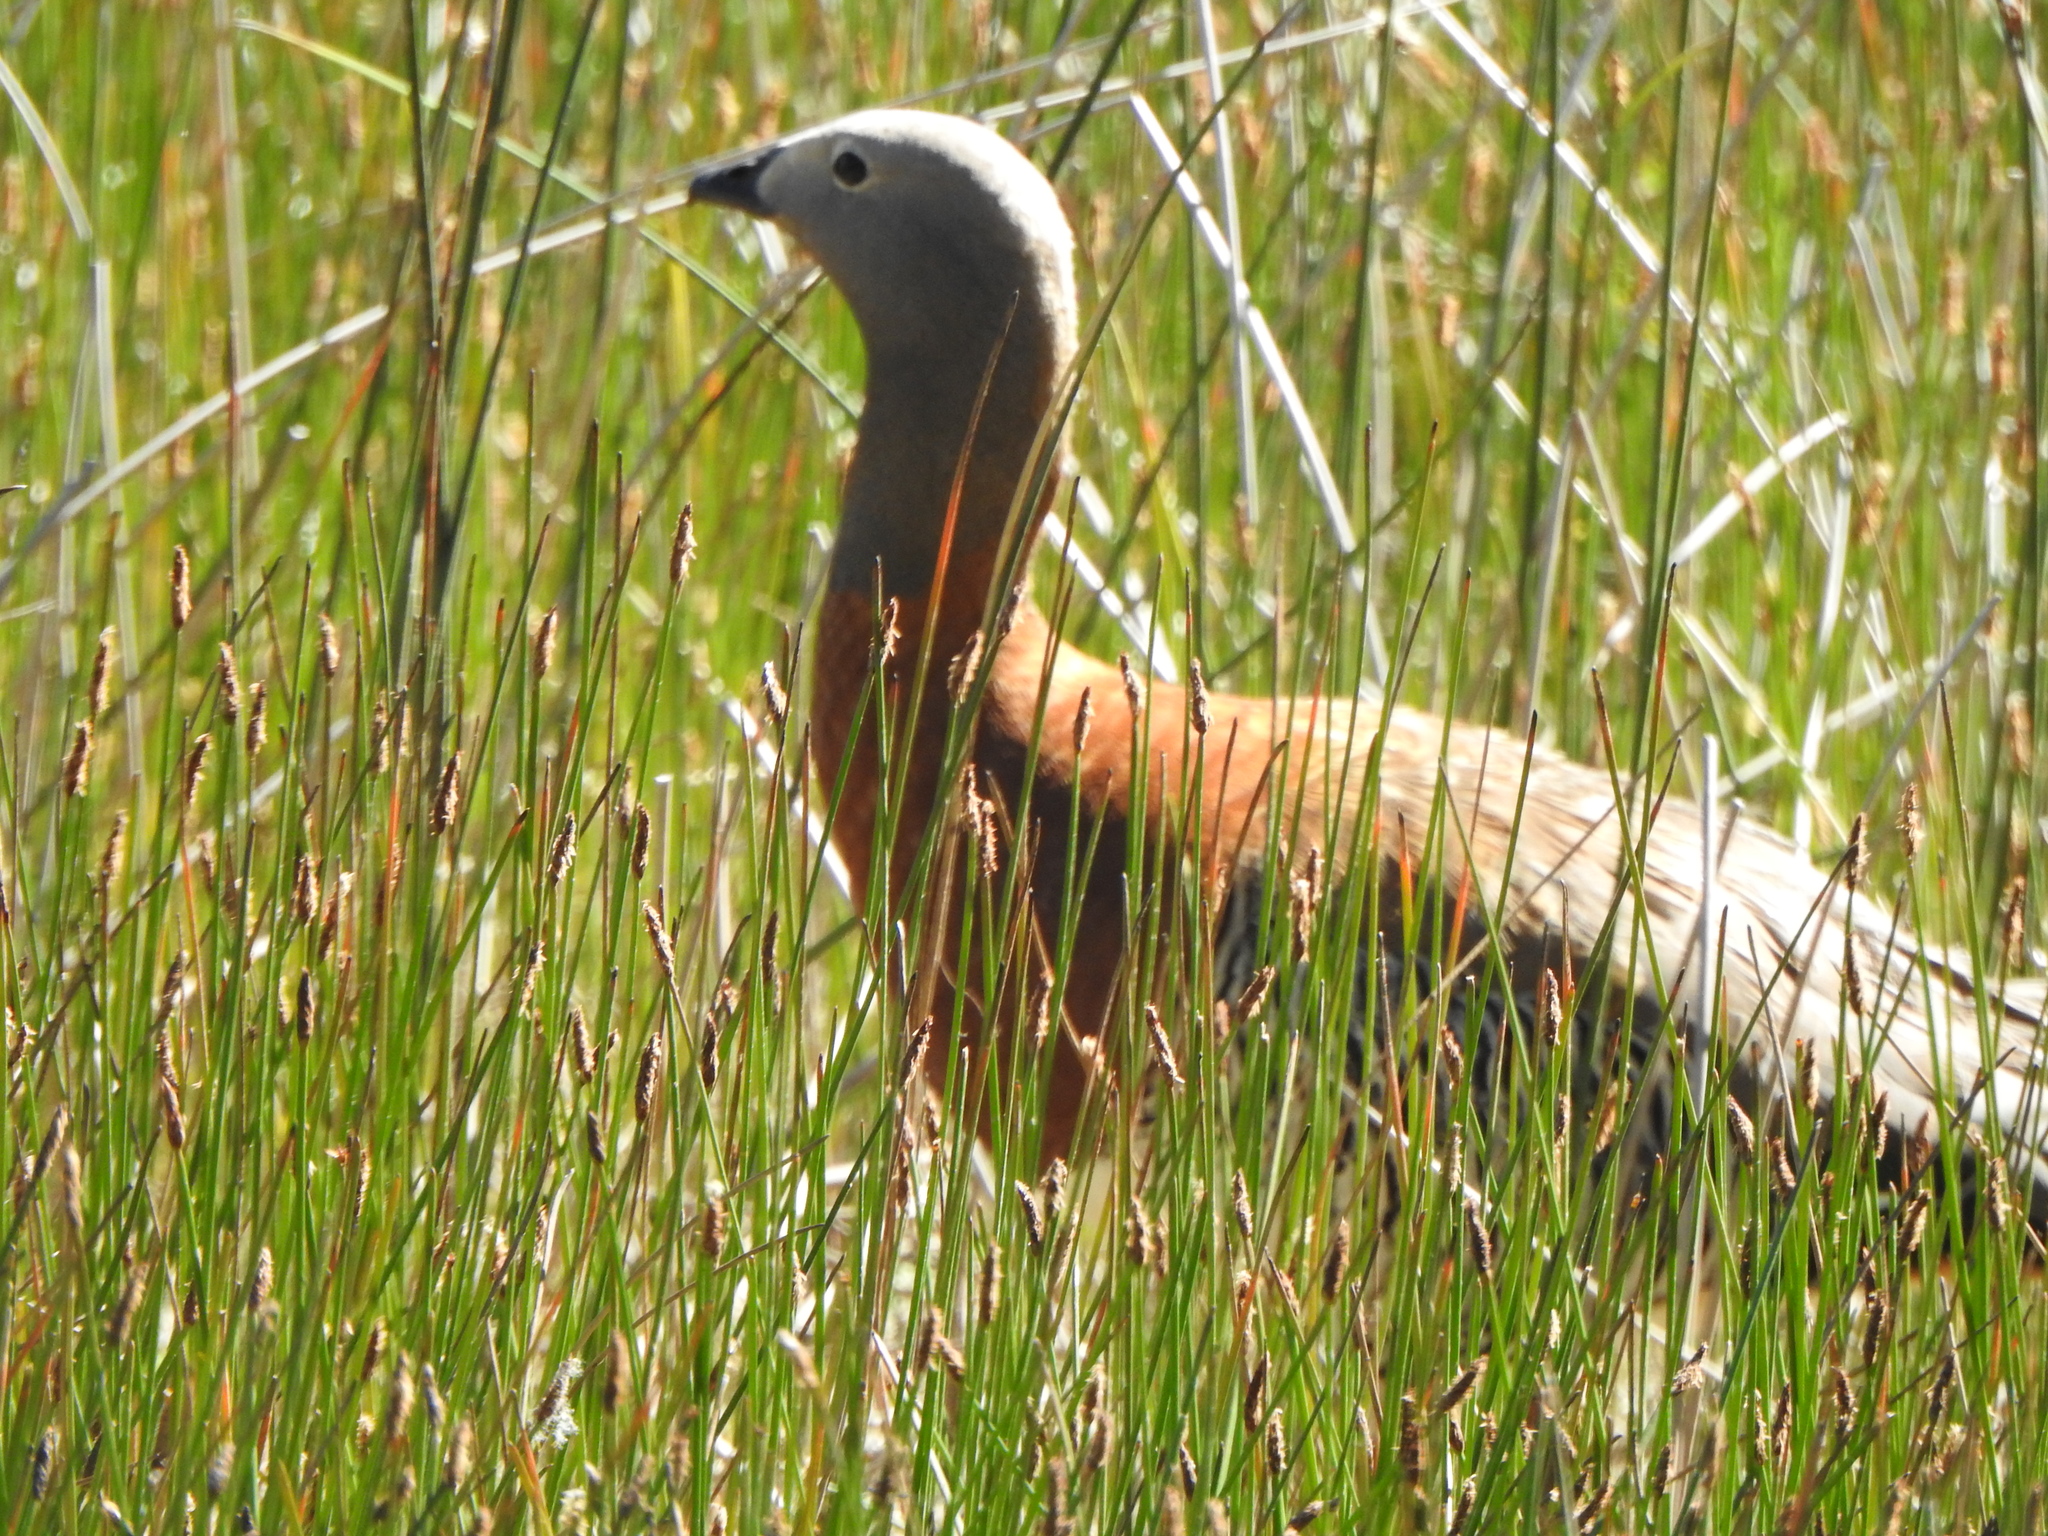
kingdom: Animalia
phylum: Chordata
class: Aves
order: Anseriformes
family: Anatidae
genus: Chloephaga
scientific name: Chloephaga poliocephala
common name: Ashy-headed goose
